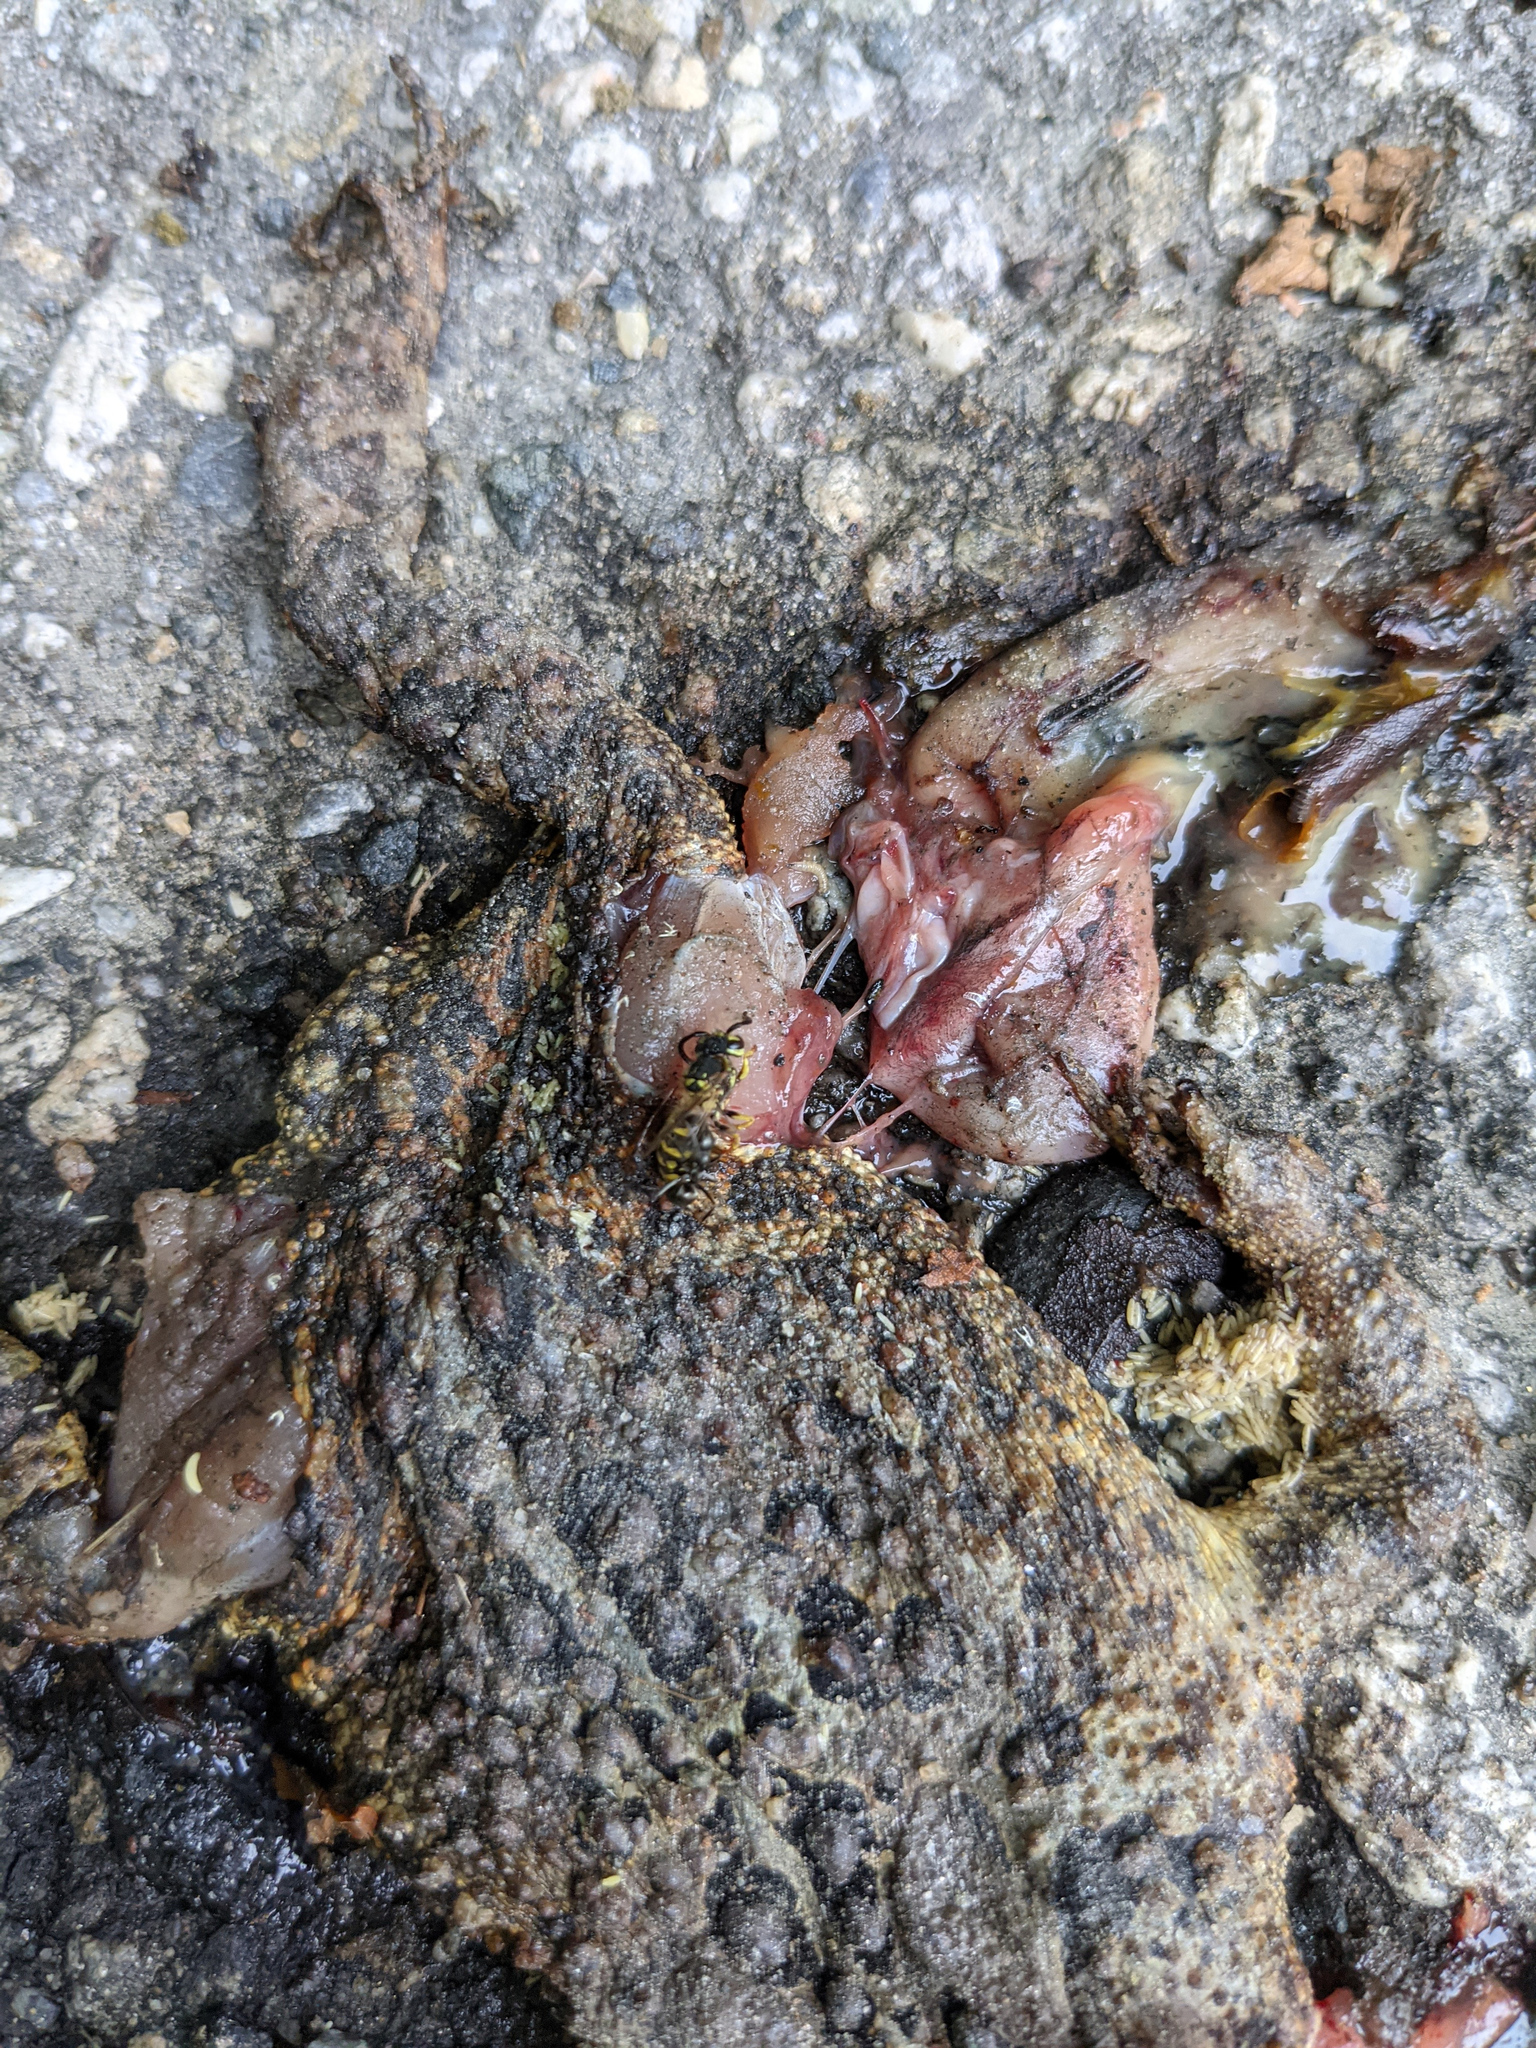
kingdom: Animalia
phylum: Chordata
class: Amphibia
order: Anura
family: Bufonidae
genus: Anaxyrus
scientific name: Anaxyrus americanus
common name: American toad
